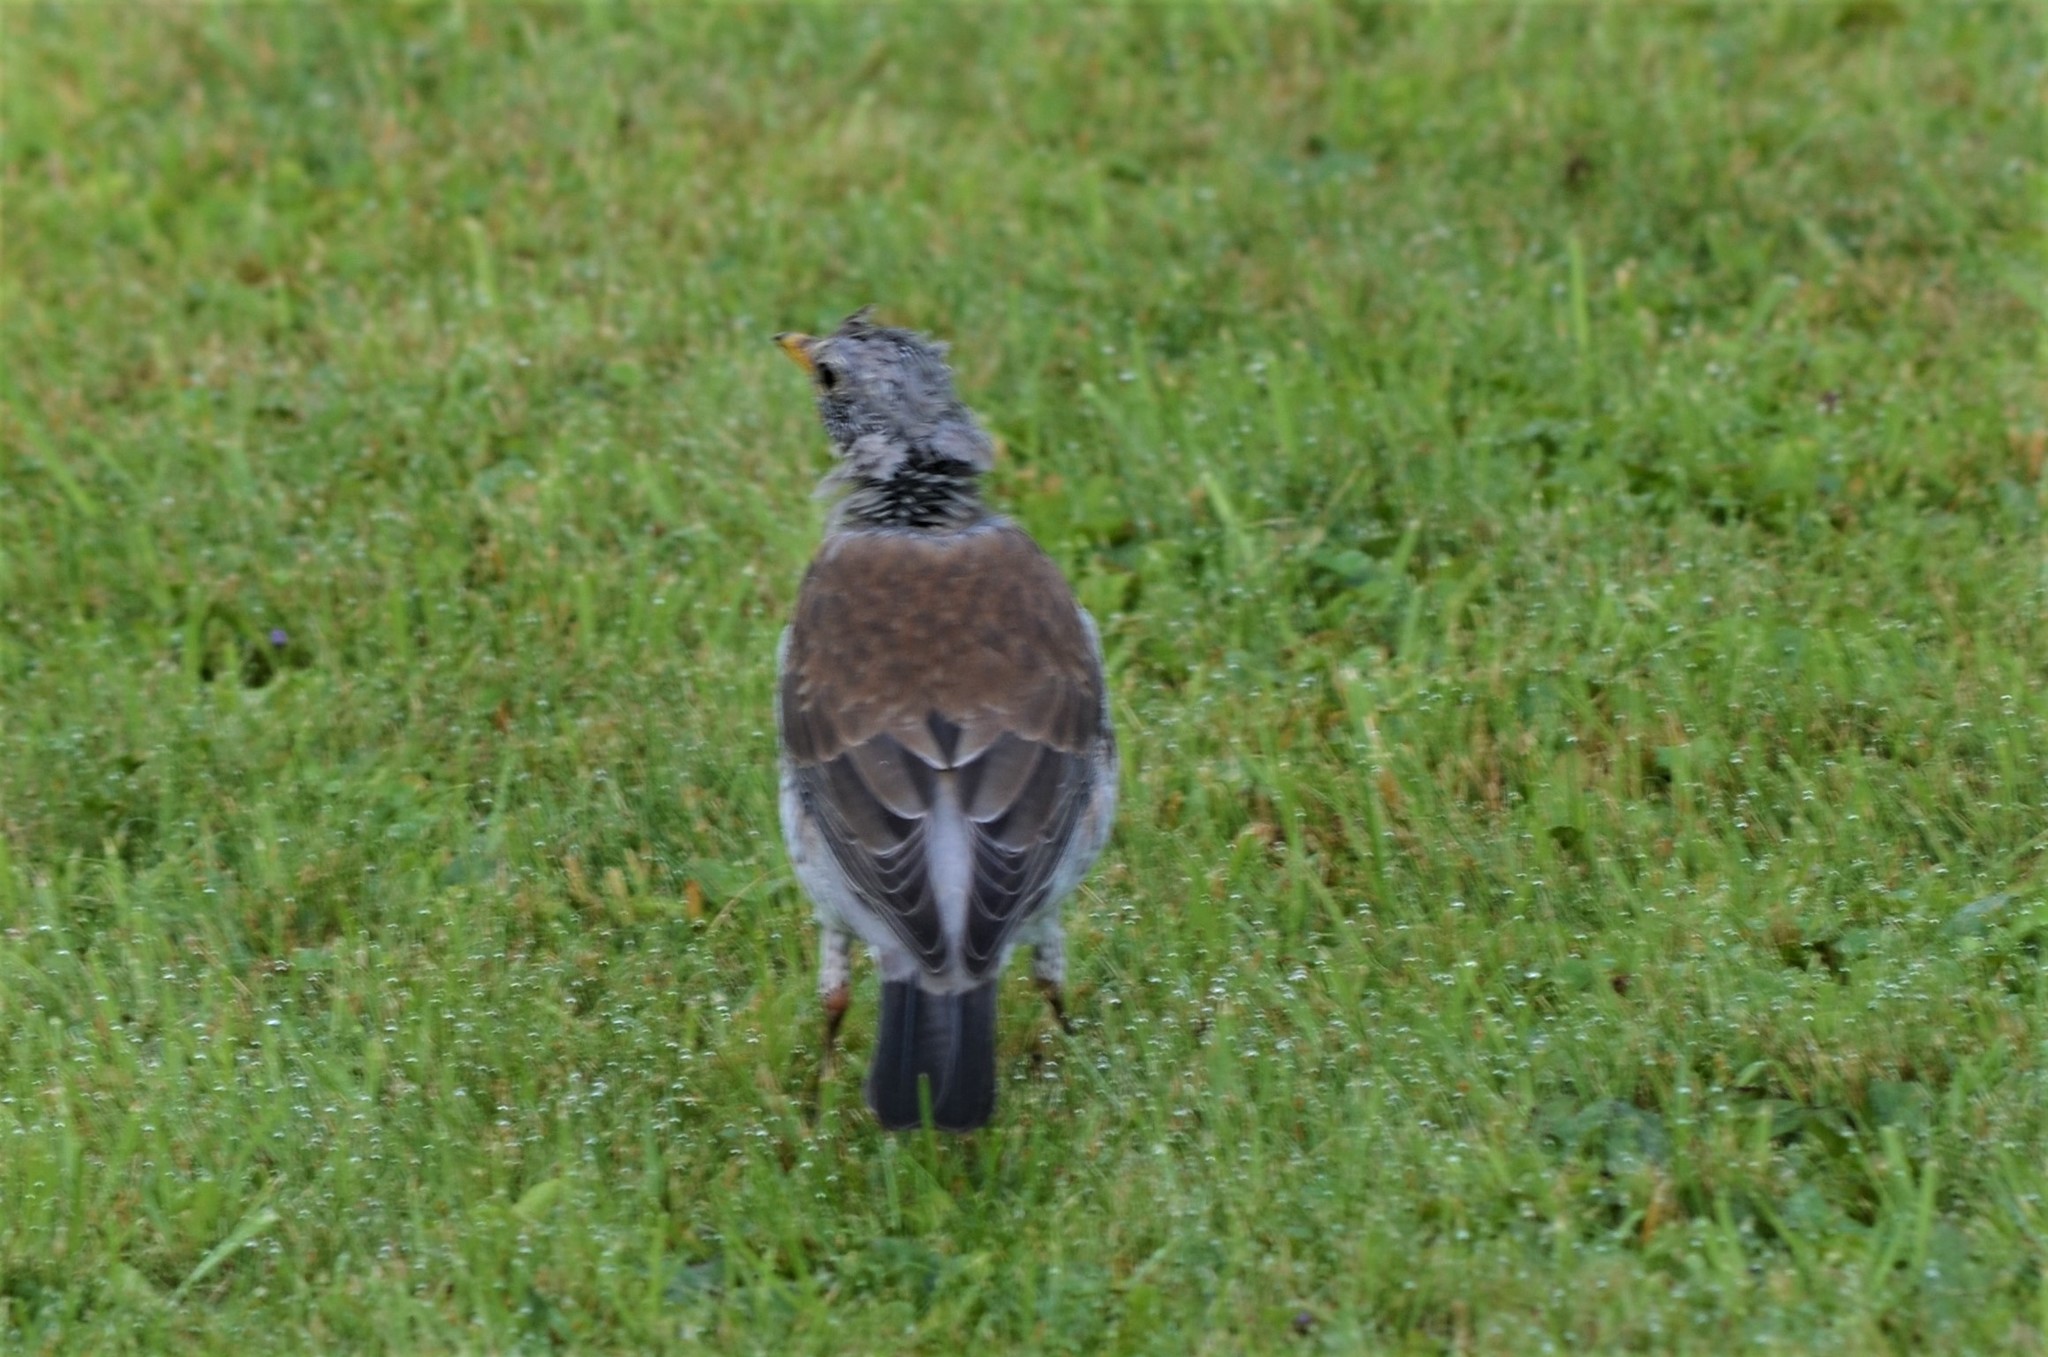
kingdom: Animalia
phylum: Chordata
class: Aves
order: Passeriformes
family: Turdidae
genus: Turdus
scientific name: Turdus pilaris
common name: Fieldfare
